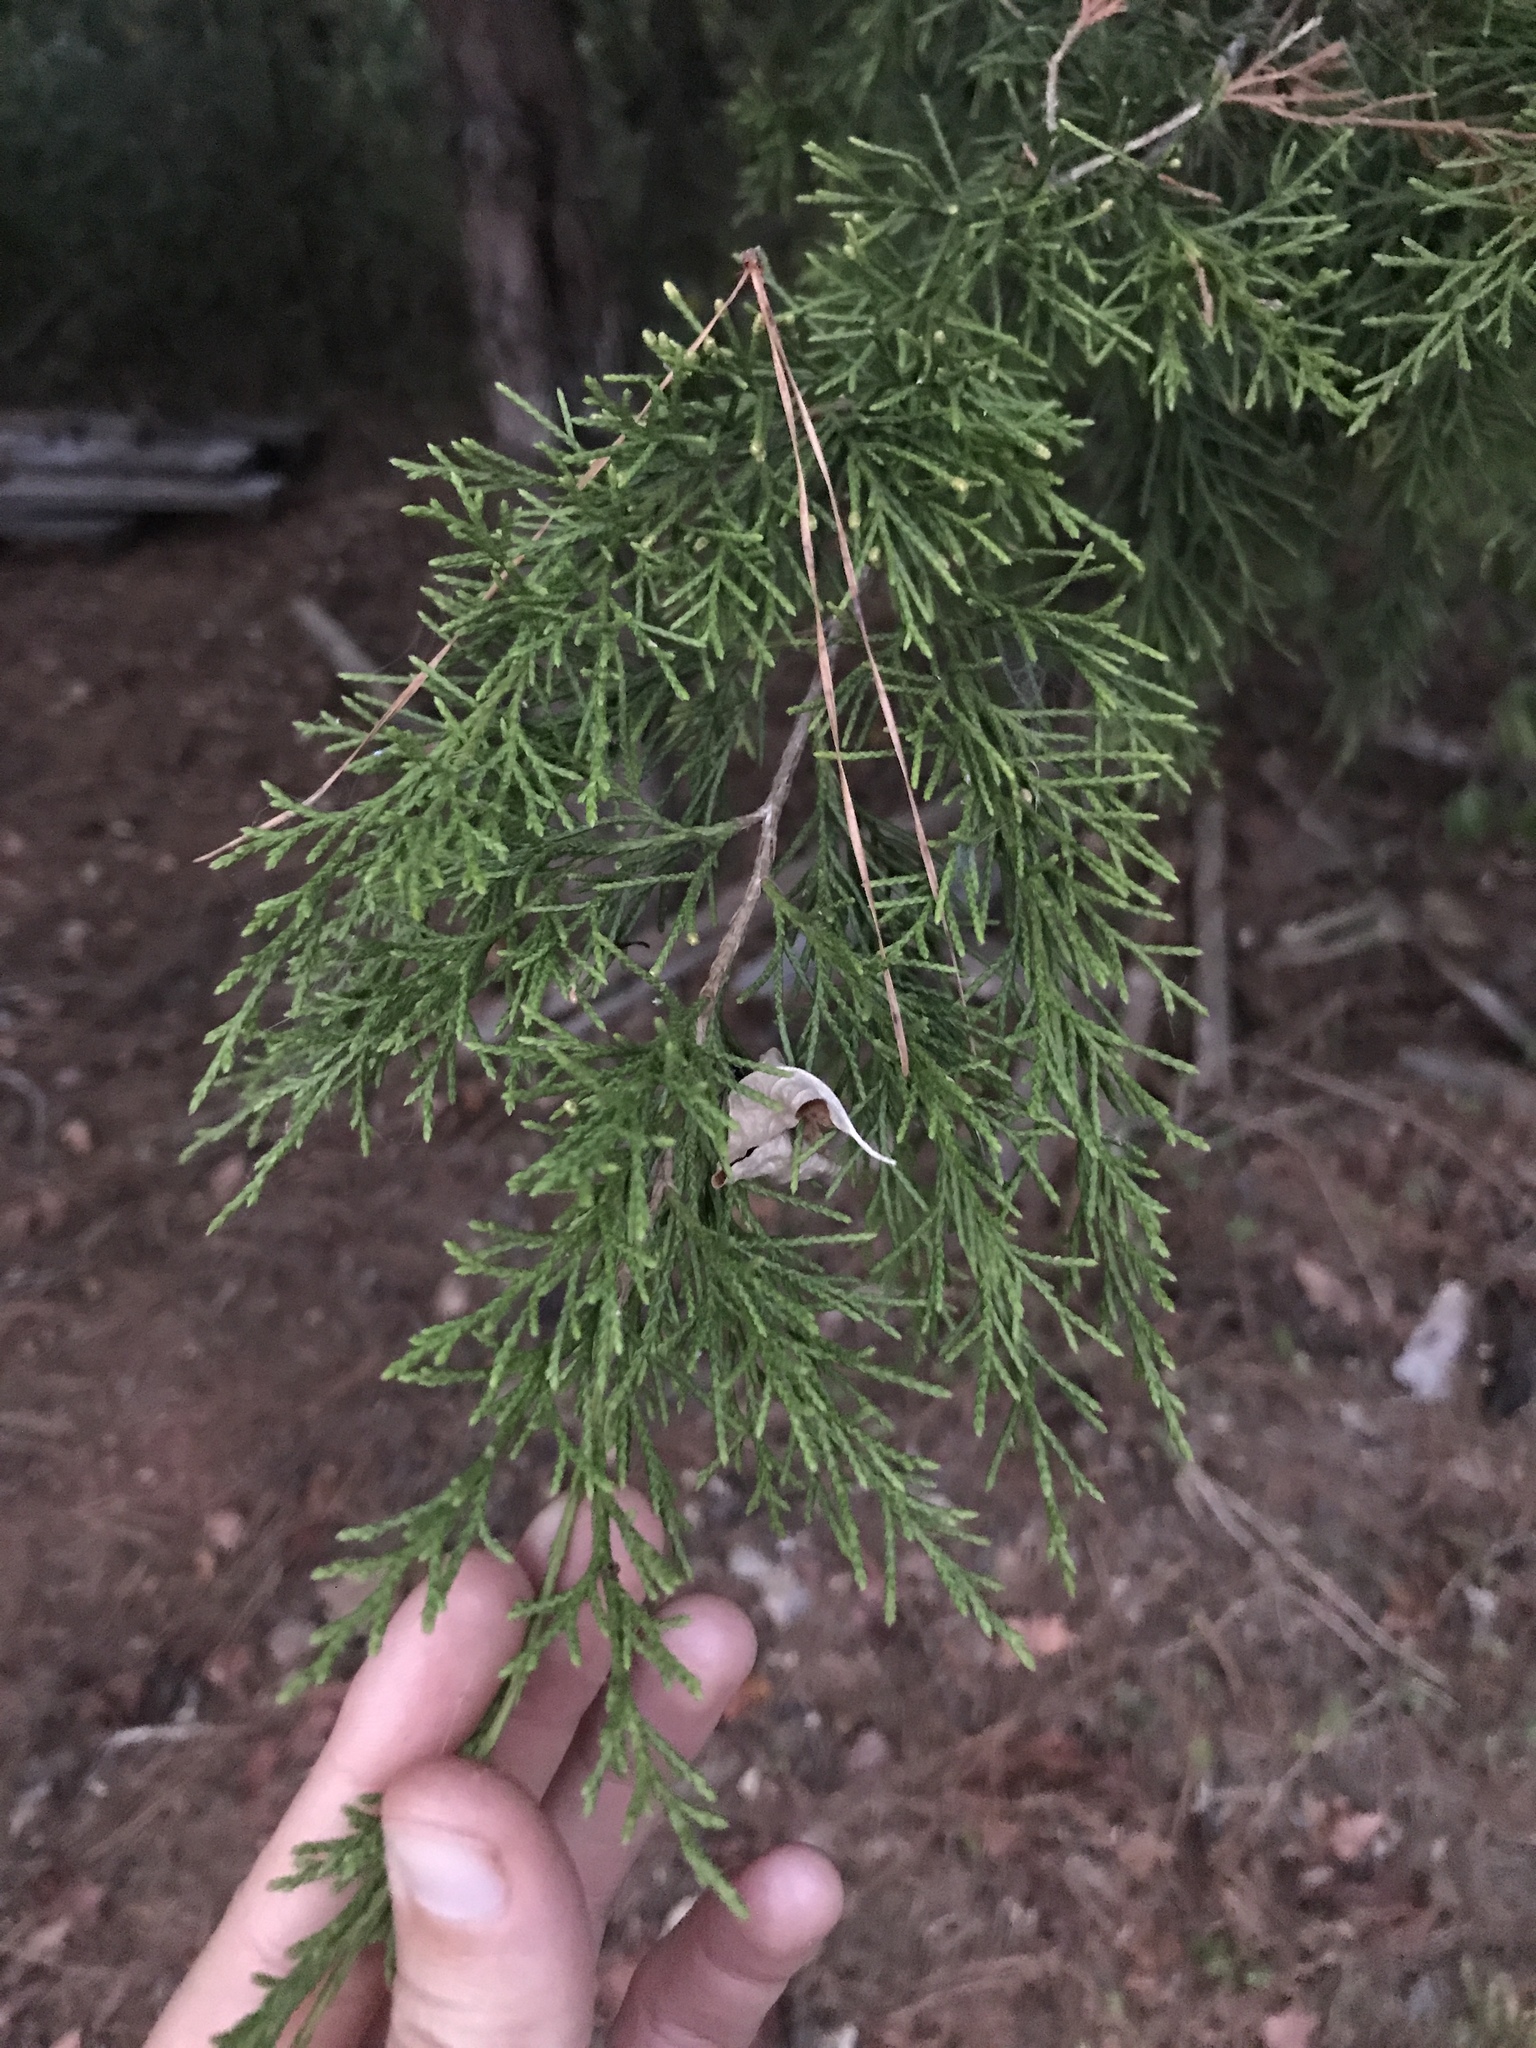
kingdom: Plantae
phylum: Tracheophyta
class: Pinopsida
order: Pinales
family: Cupressaceae
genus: Juniperus
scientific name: Juniperus virginiana
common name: Red juniper
